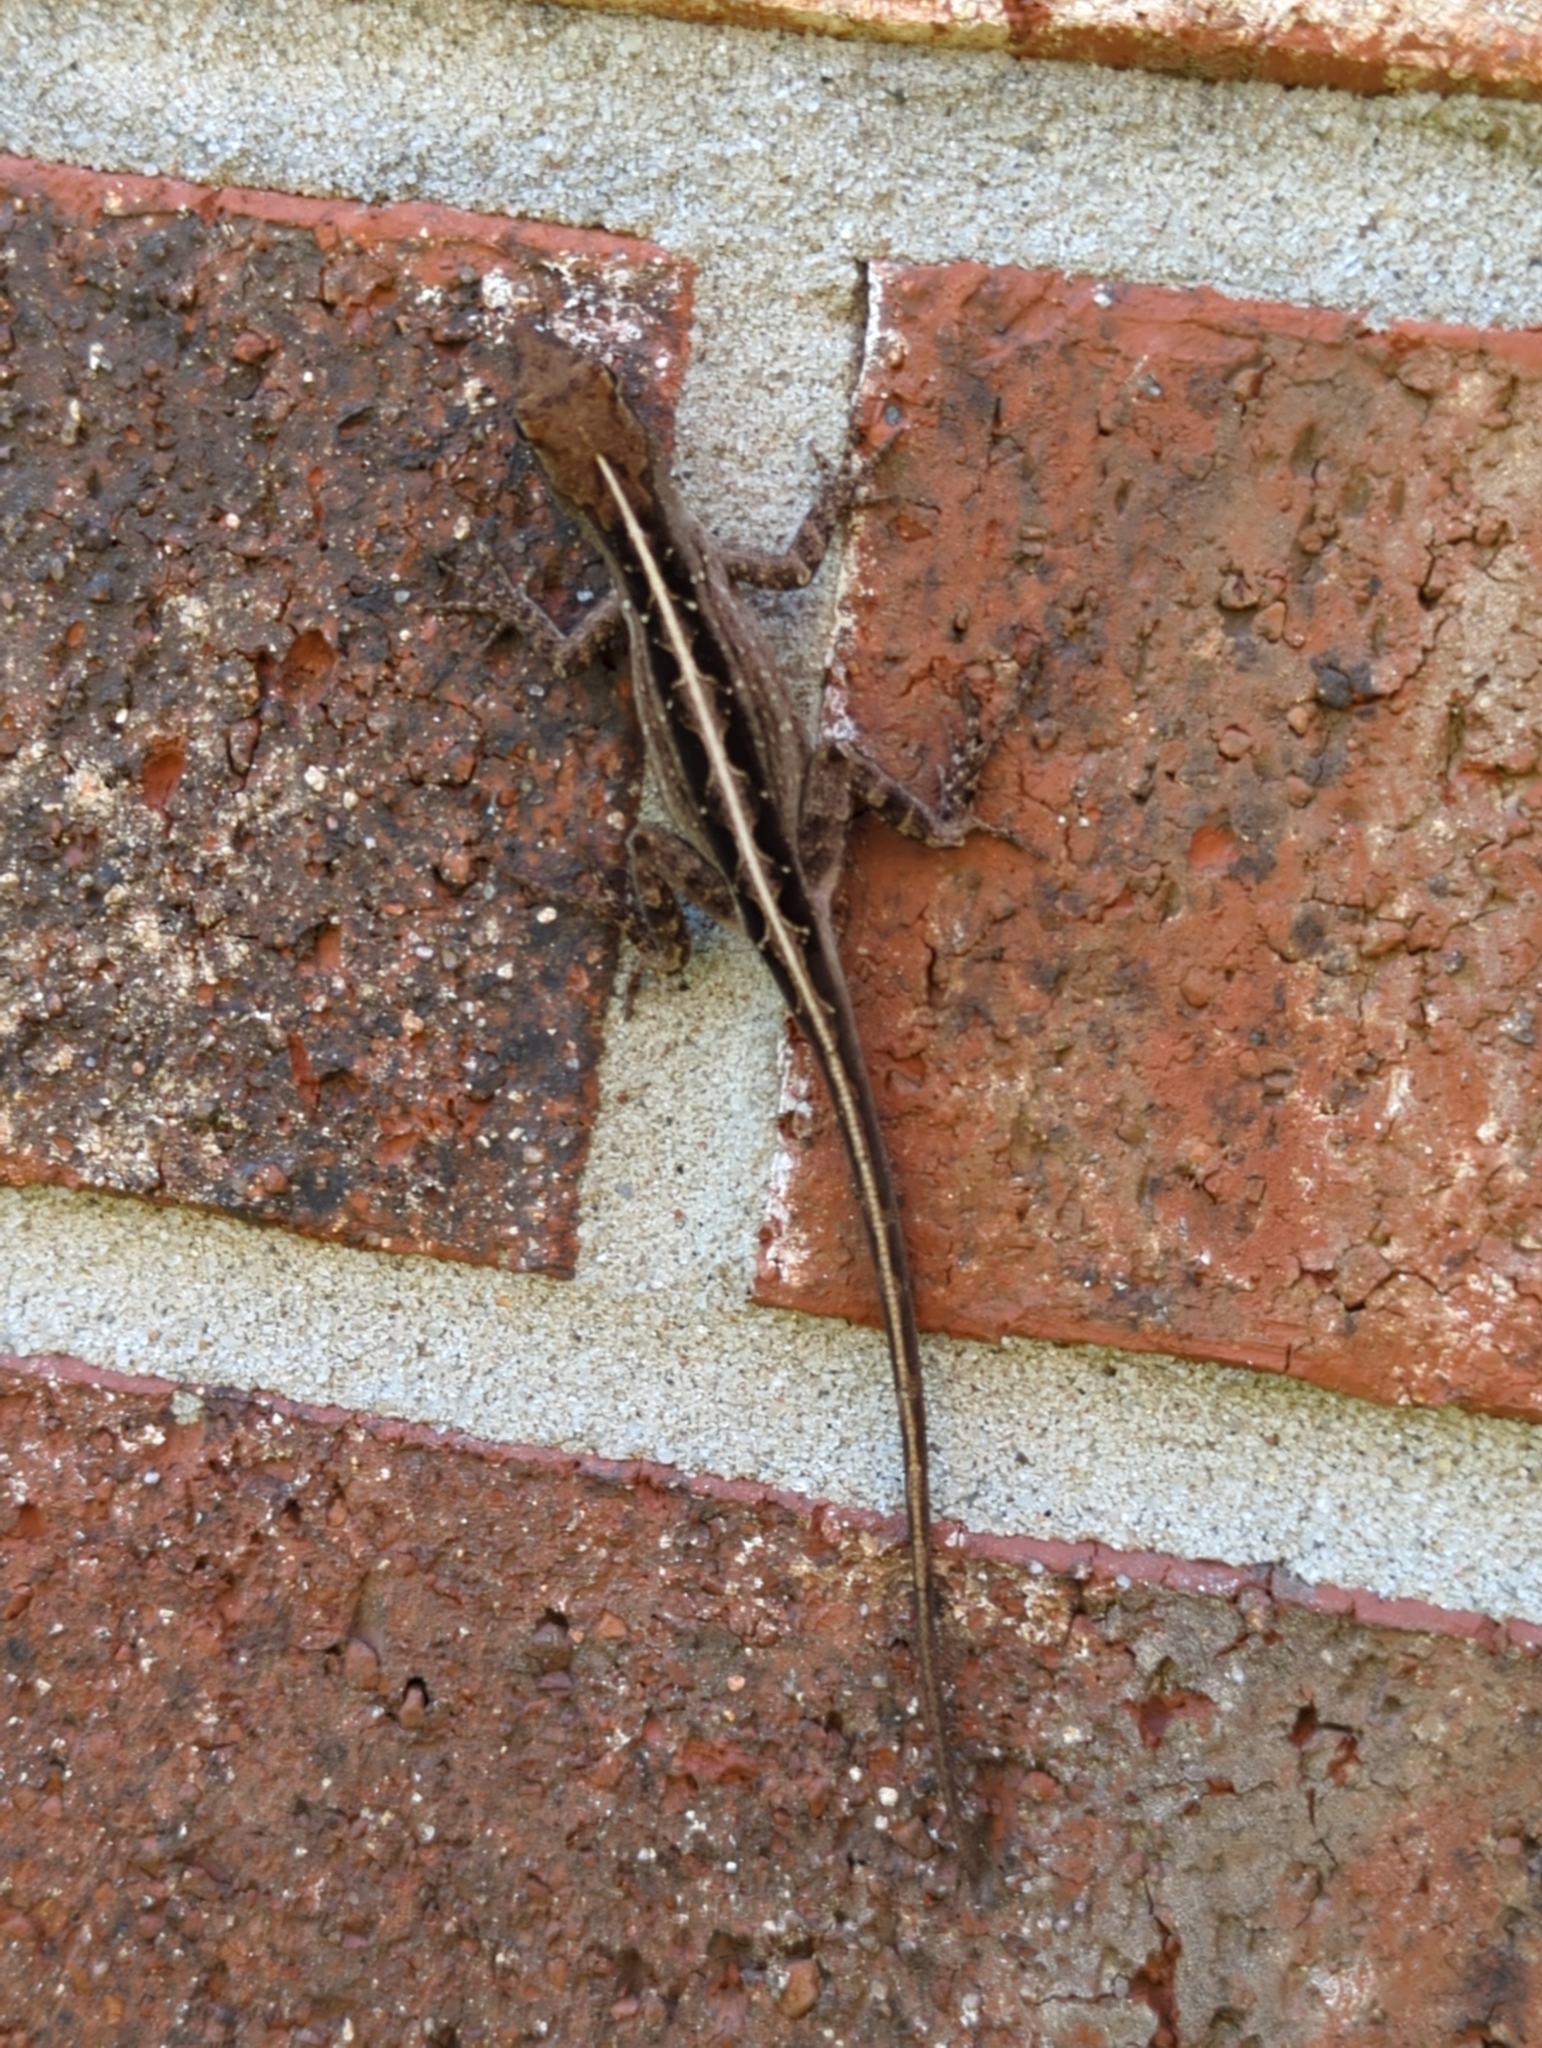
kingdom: Animalia
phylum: Chordata
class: Squamata
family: Dactyloidae
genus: Anolis
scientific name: Anolis sagrei
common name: Brown anole
